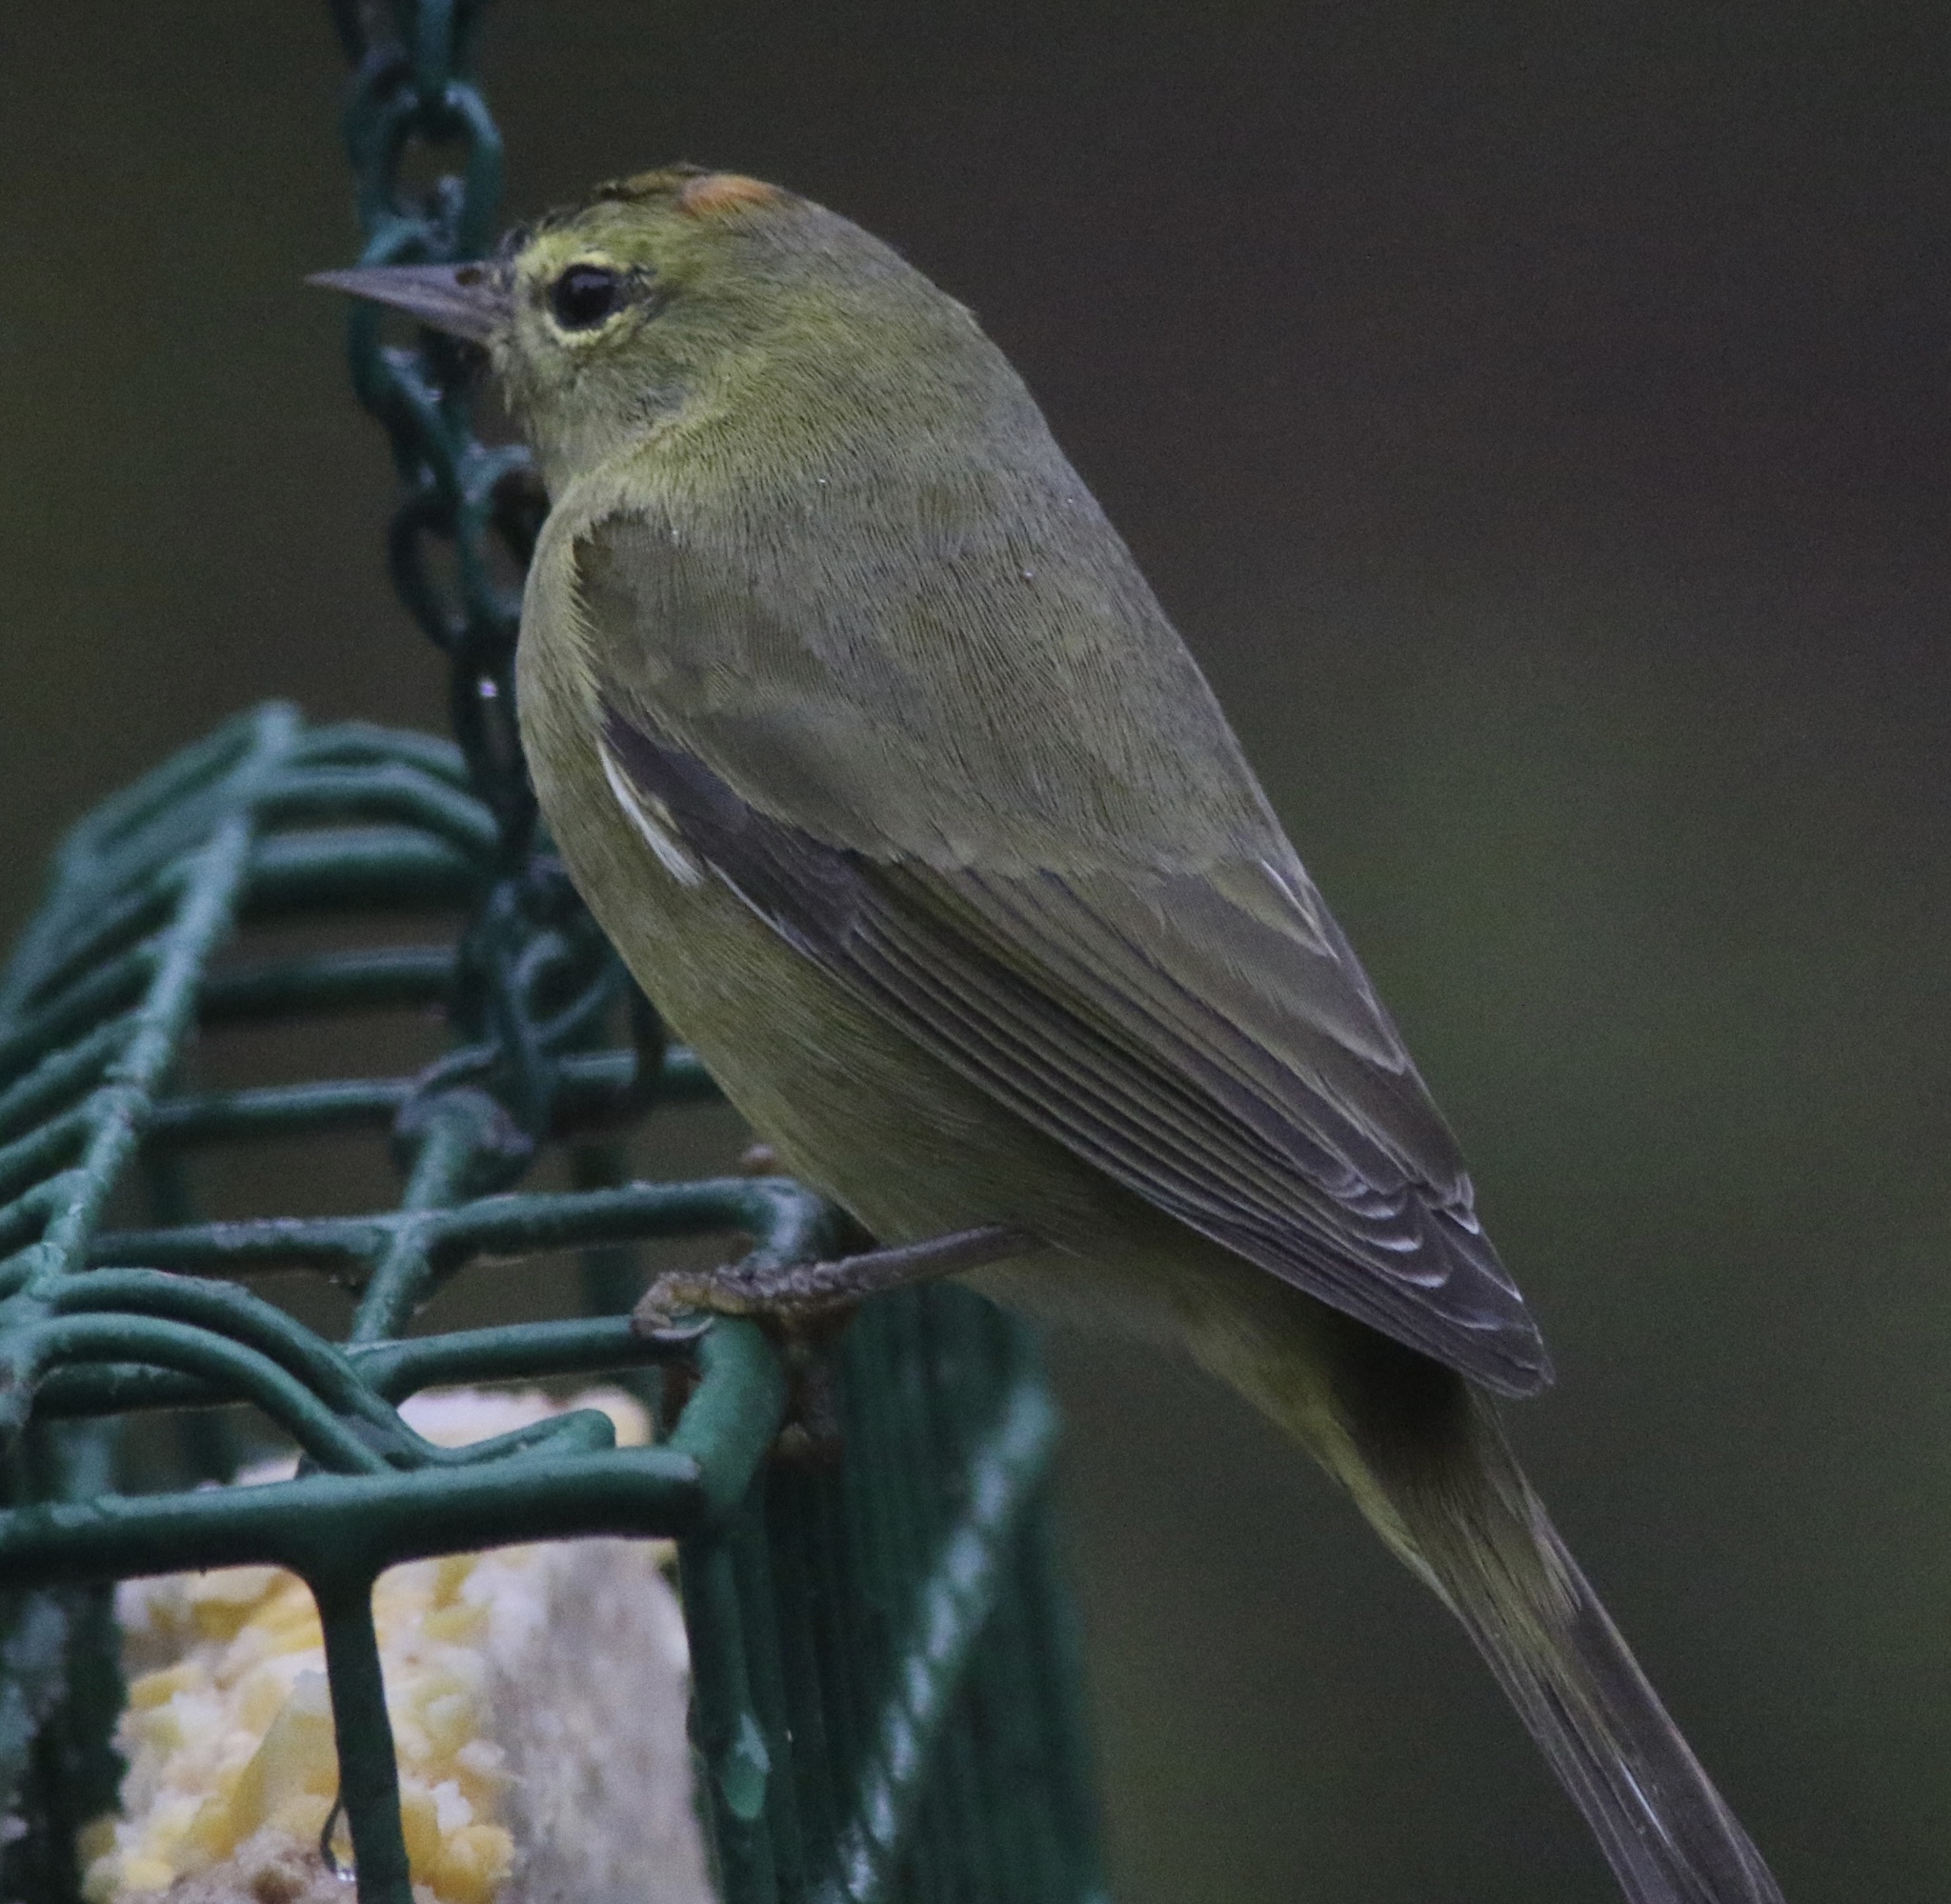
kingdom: Animalia
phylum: Chordata
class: Aves
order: Passeriformes
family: Parulidae
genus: Leiothlypis
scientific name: Leiothlypis celata
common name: Orange-crowned warbler
